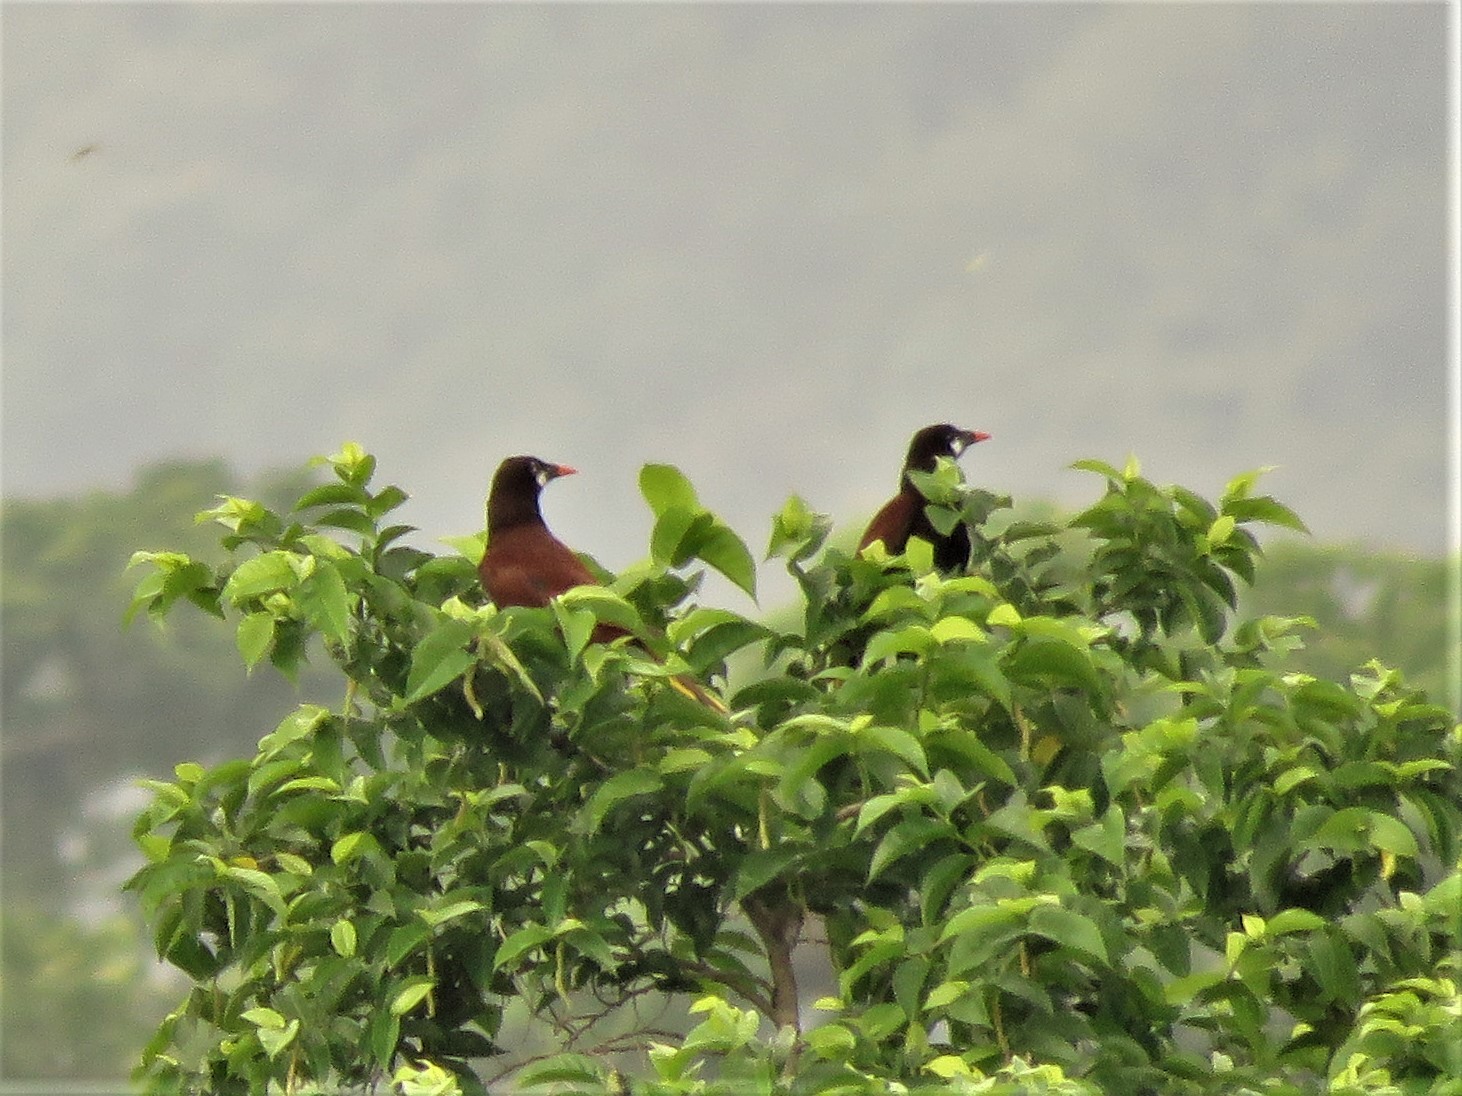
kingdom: Animalia
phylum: Chordata
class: Aves
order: Passeriformes
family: Icteridae
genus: Psarocolius
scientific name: Psarocolius montezuma
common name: Montezuma oropendola
